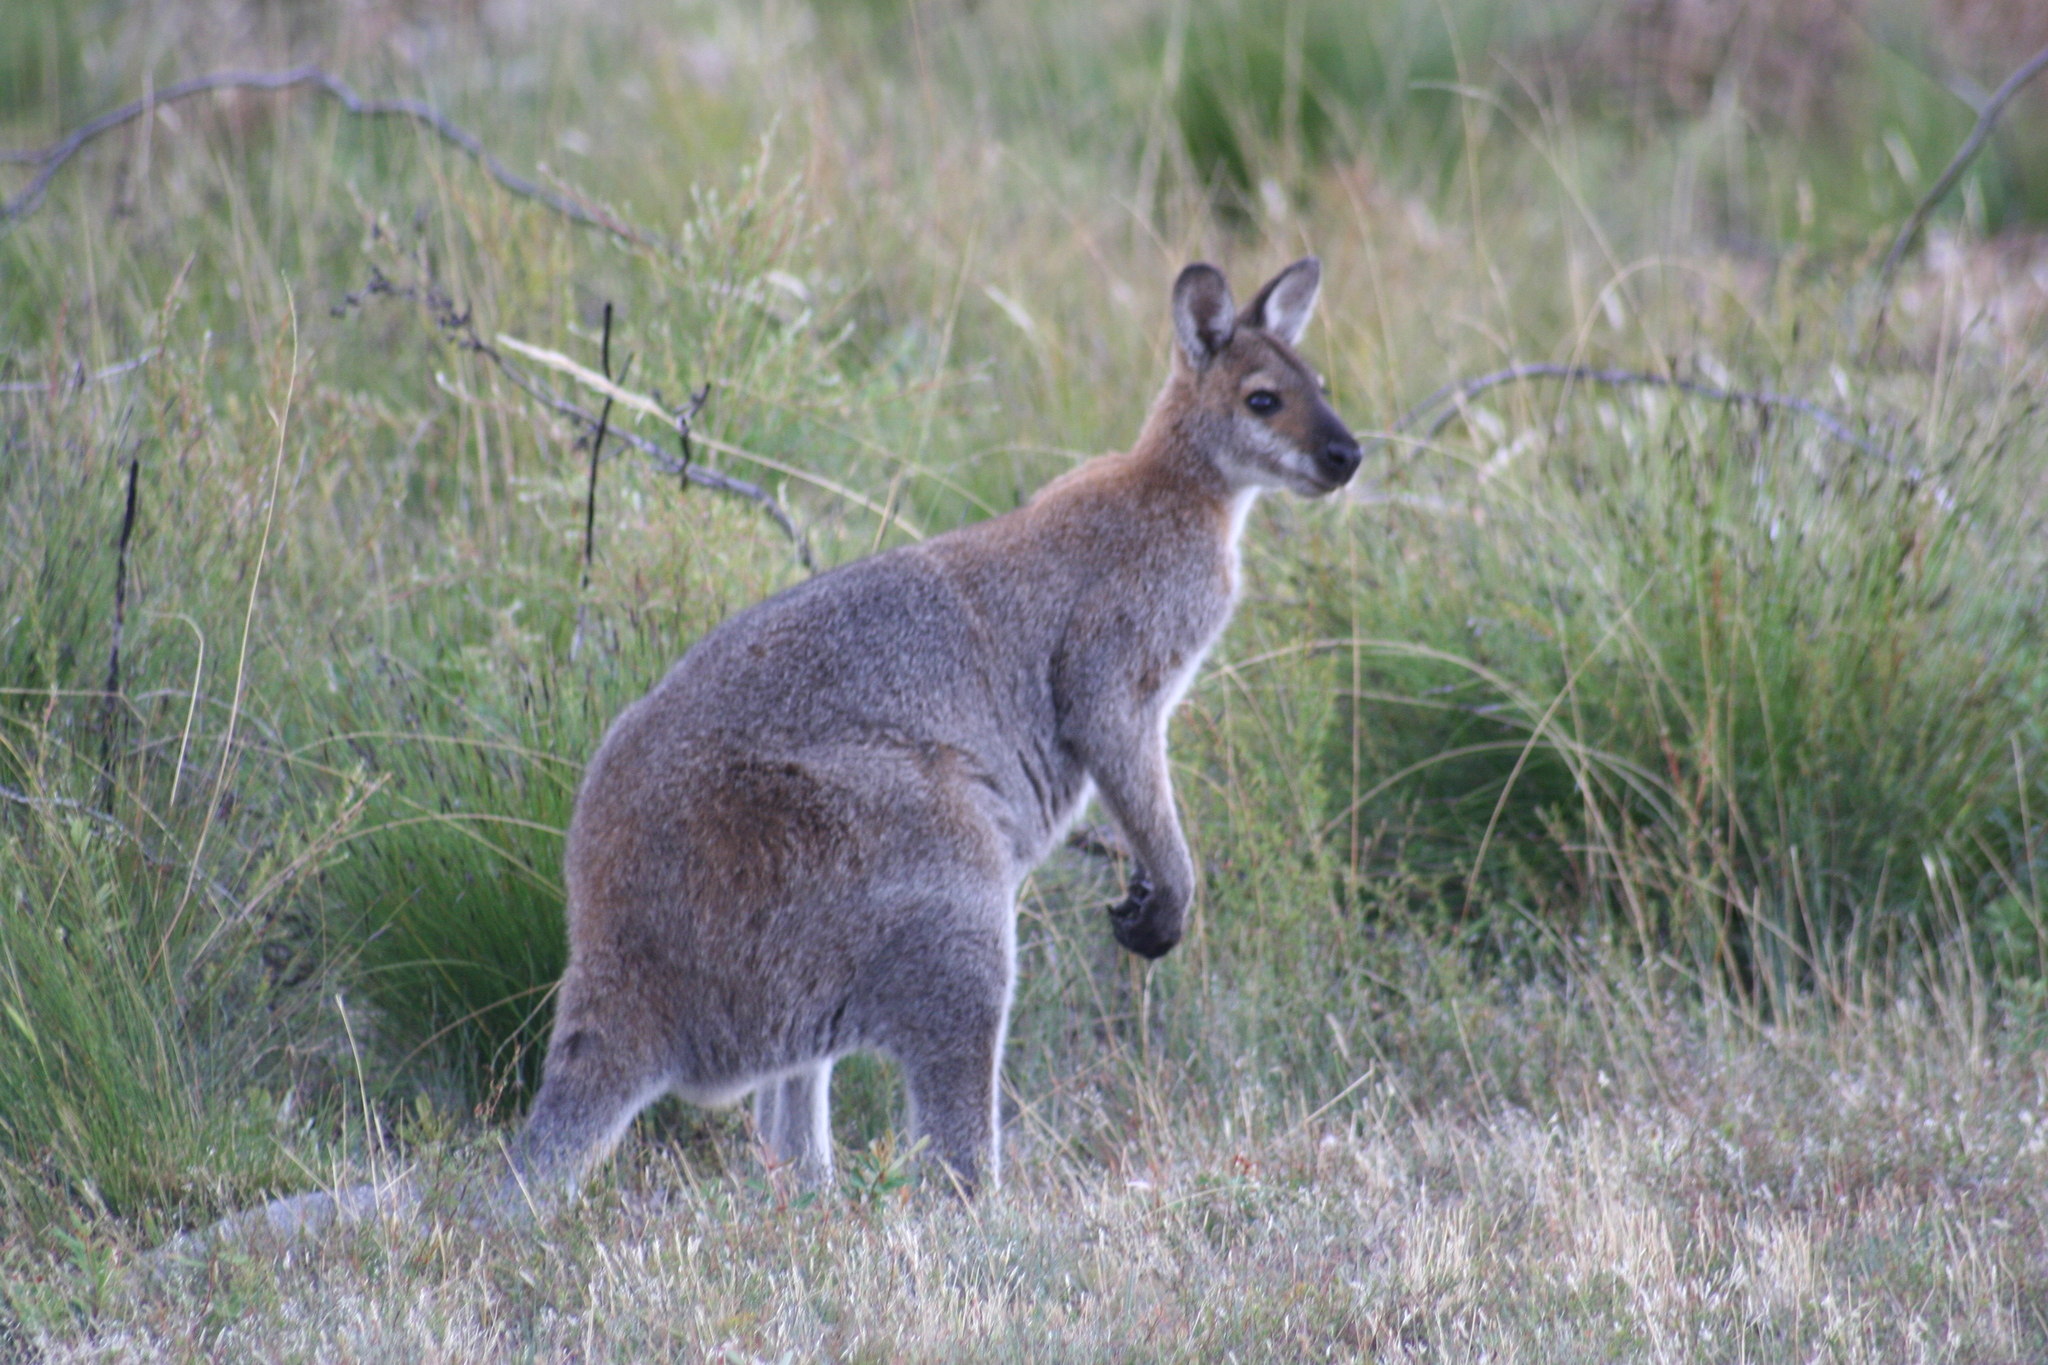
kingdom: Animalia
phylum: Chordata
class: Mammalia
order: Diprotodontia
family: Macropodidae
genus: Notamacropus
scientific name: Notamacropus rufogriseus
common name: Red-necked wallaby
